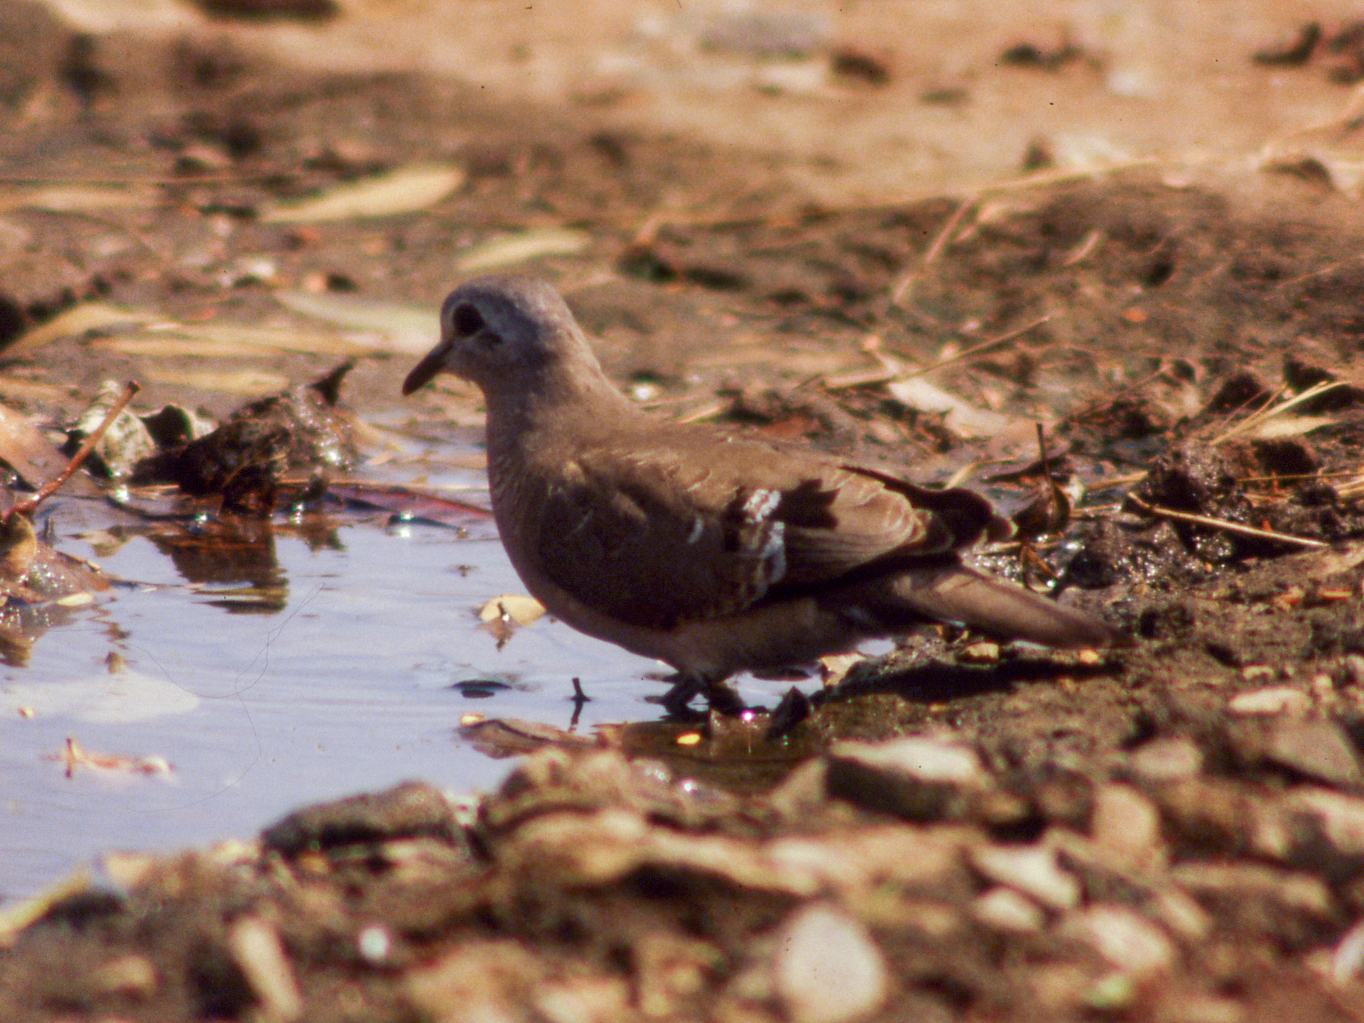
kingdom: Animalia
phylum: Chordata
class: Aves
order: Columbiformes
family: Columbidae
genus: Turtur
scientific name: Turtur chalcospilos
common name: Emerald-spotted wood dove
